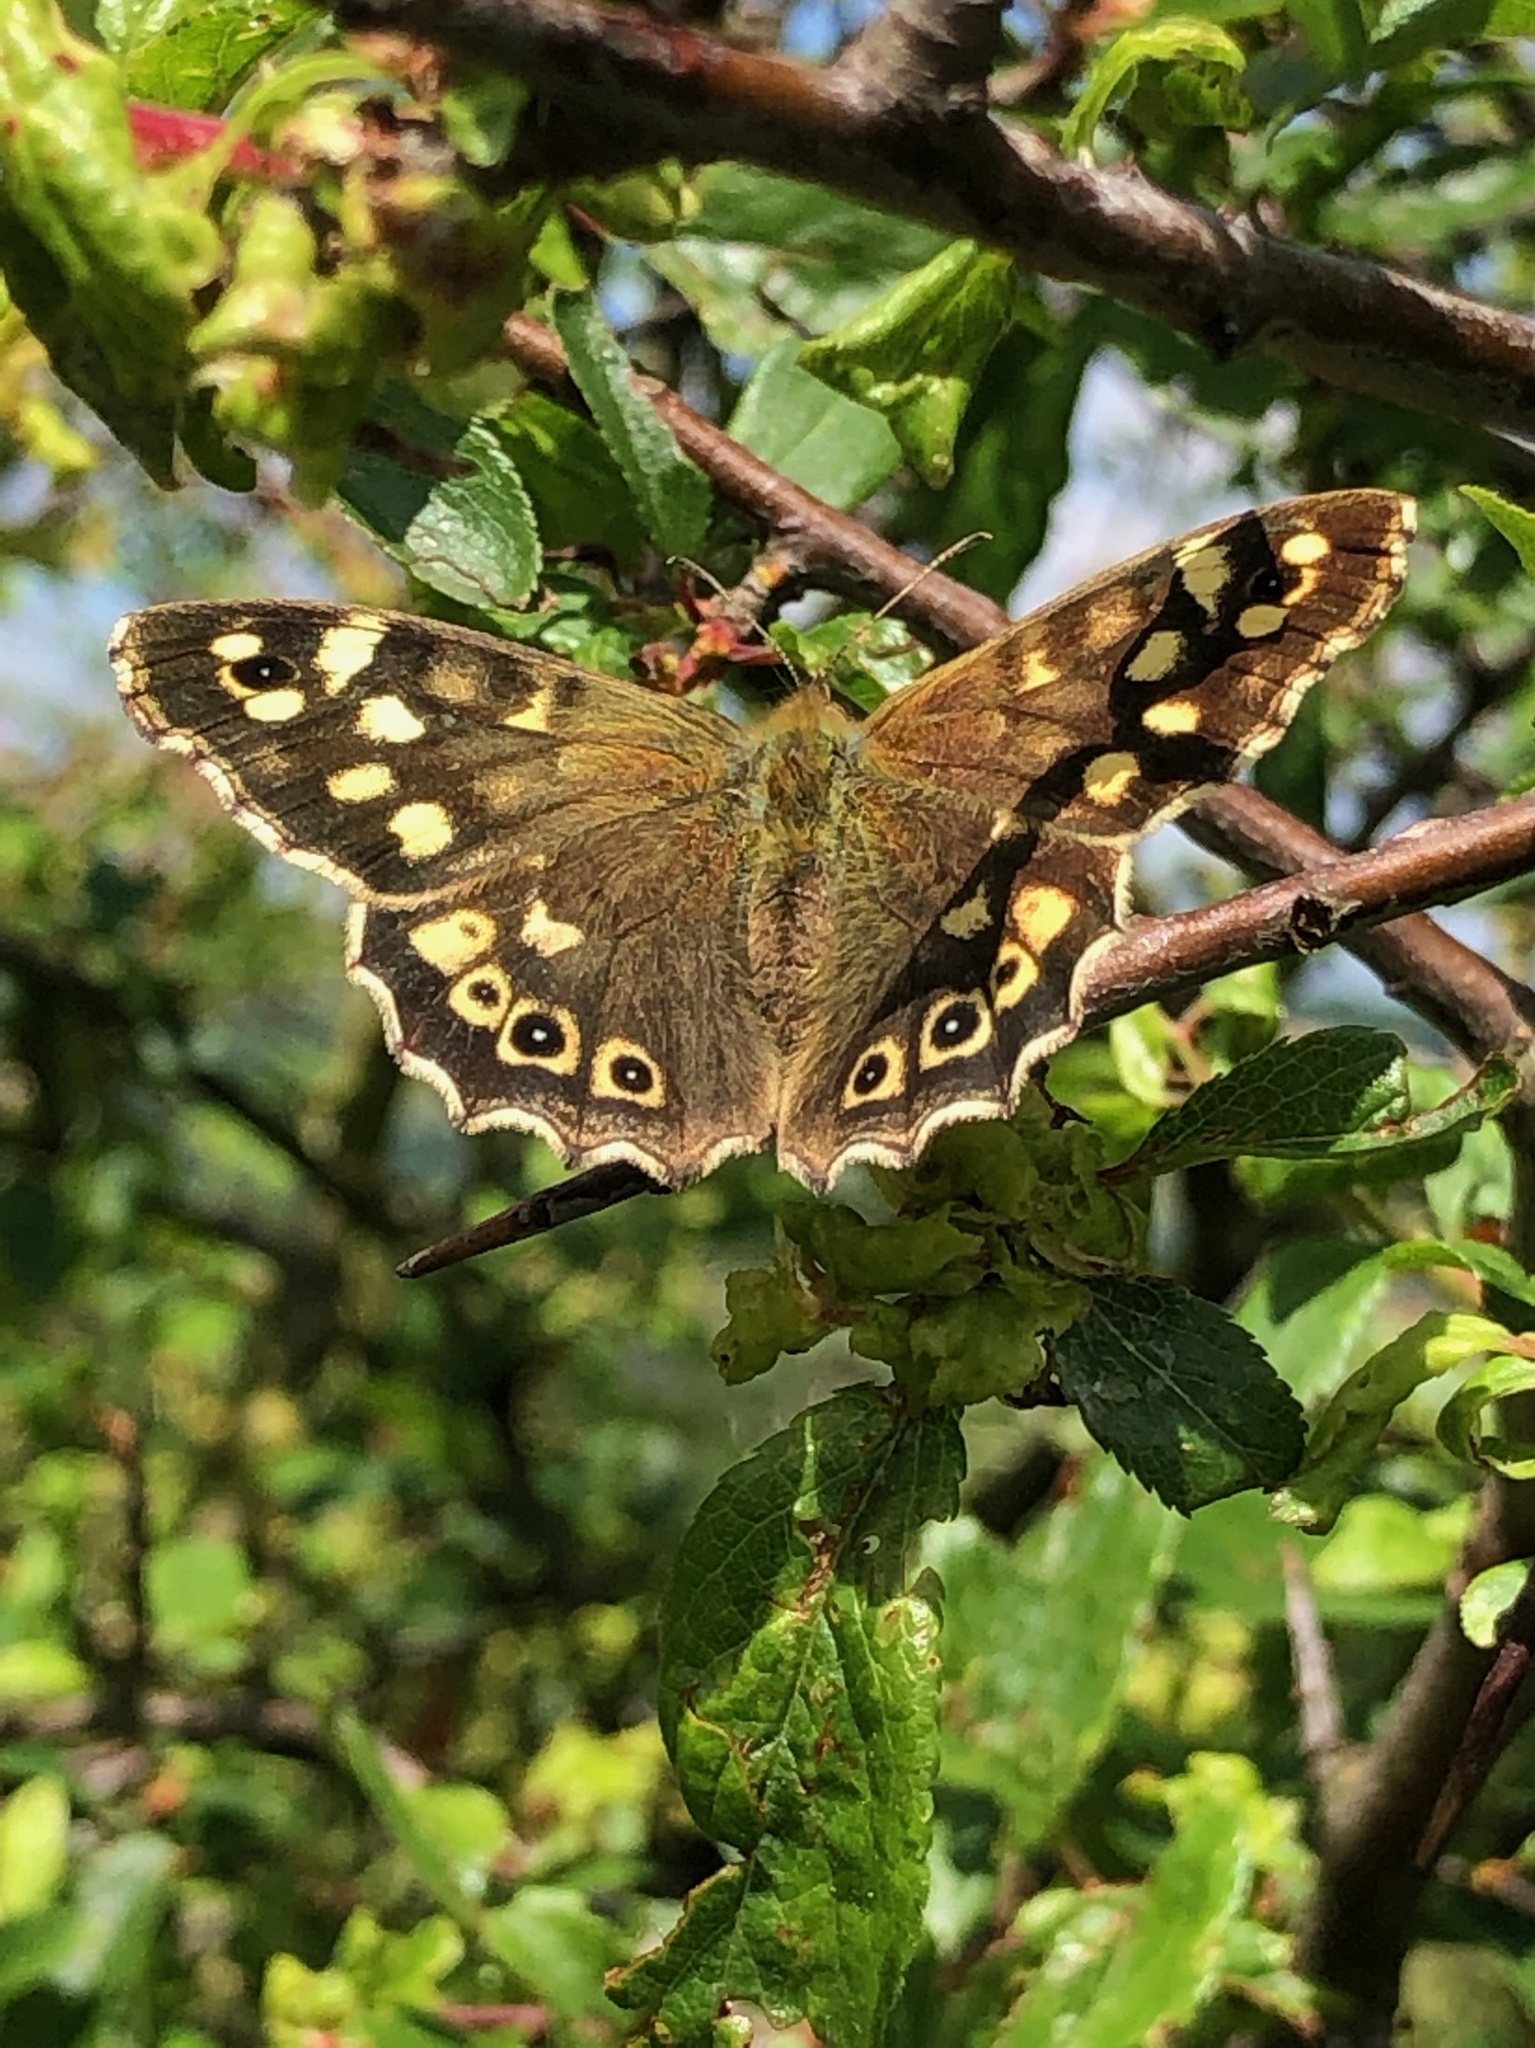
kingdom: Animalia
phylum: Arthropoda
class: Insecta
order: Lepidoptera
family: Nymphalidae
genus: Pararge
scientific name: Pararge aegeria
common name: Speckled wood
